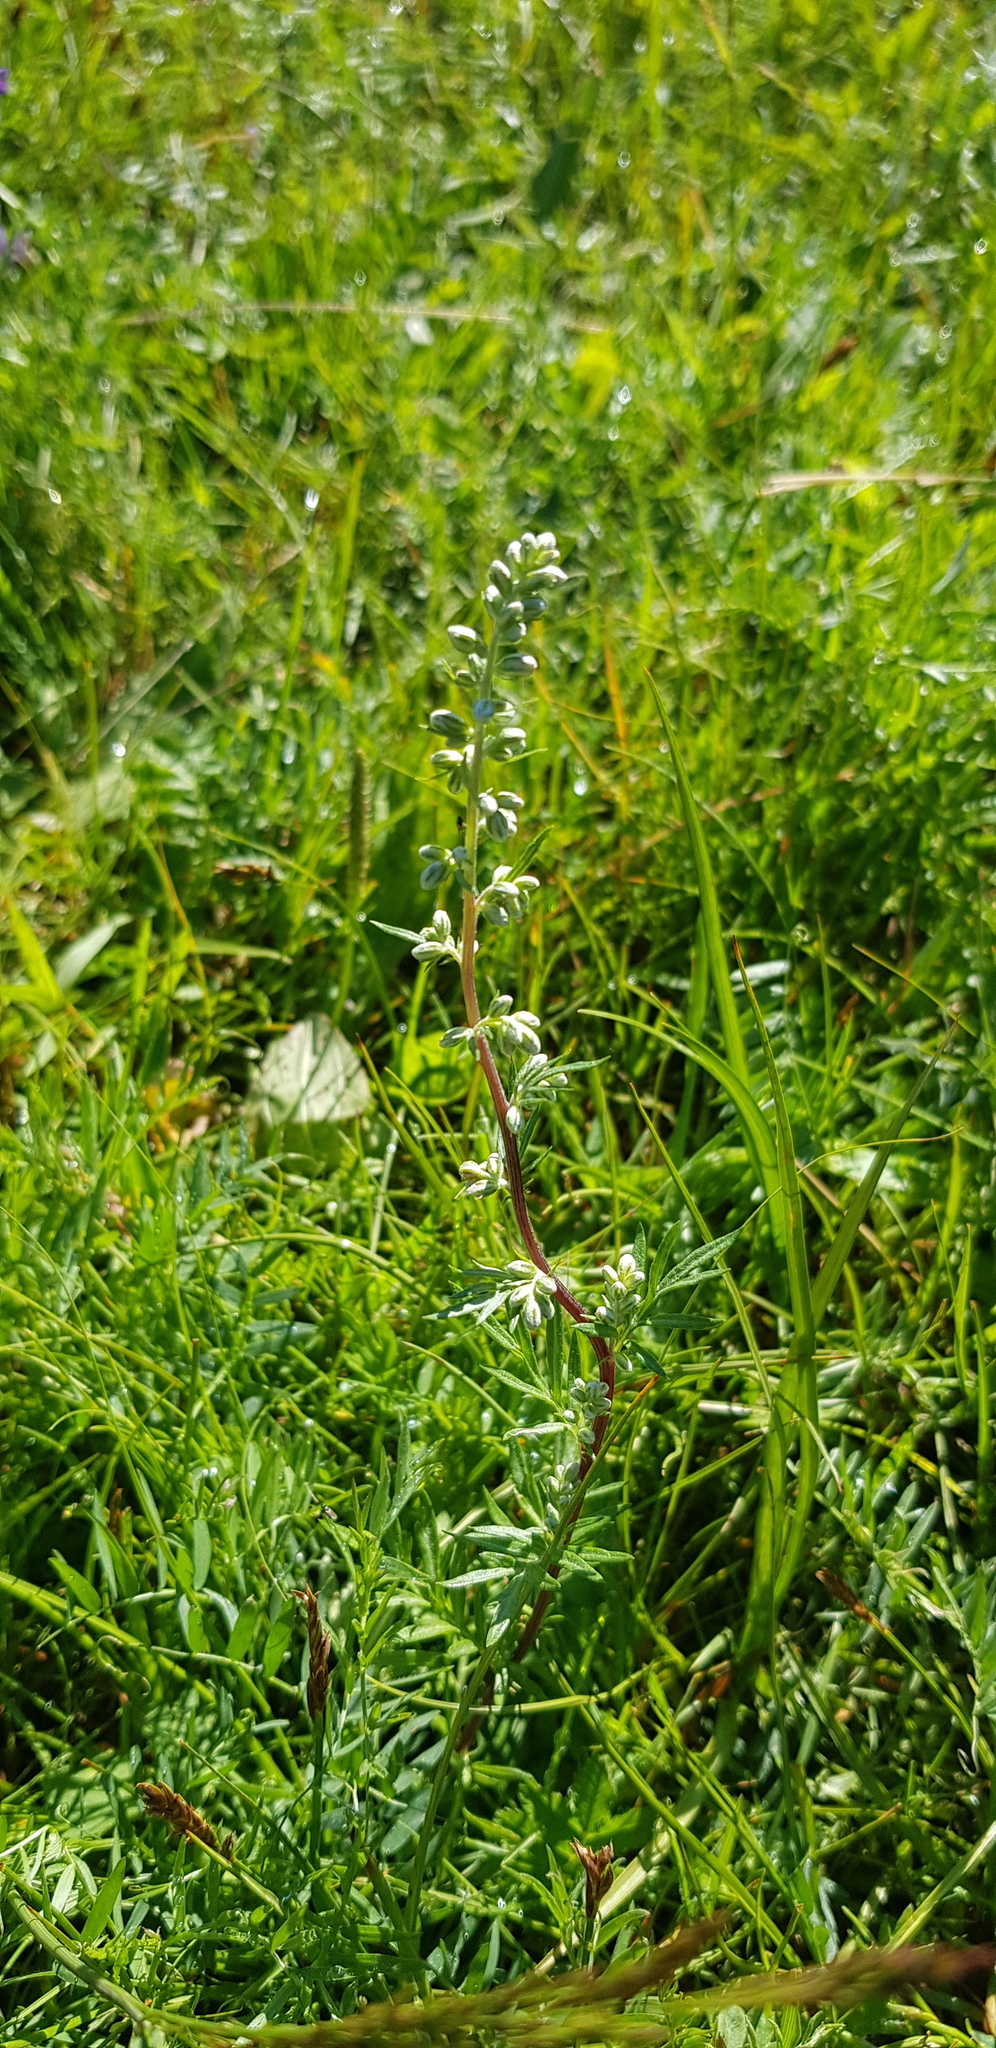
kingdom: Plantae
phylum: Tracheophyta
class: Magnoliopsida
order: Asterales
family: Asteraceae
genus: Artemisia
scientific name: Artemisia vulgaris
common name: Mugwort
